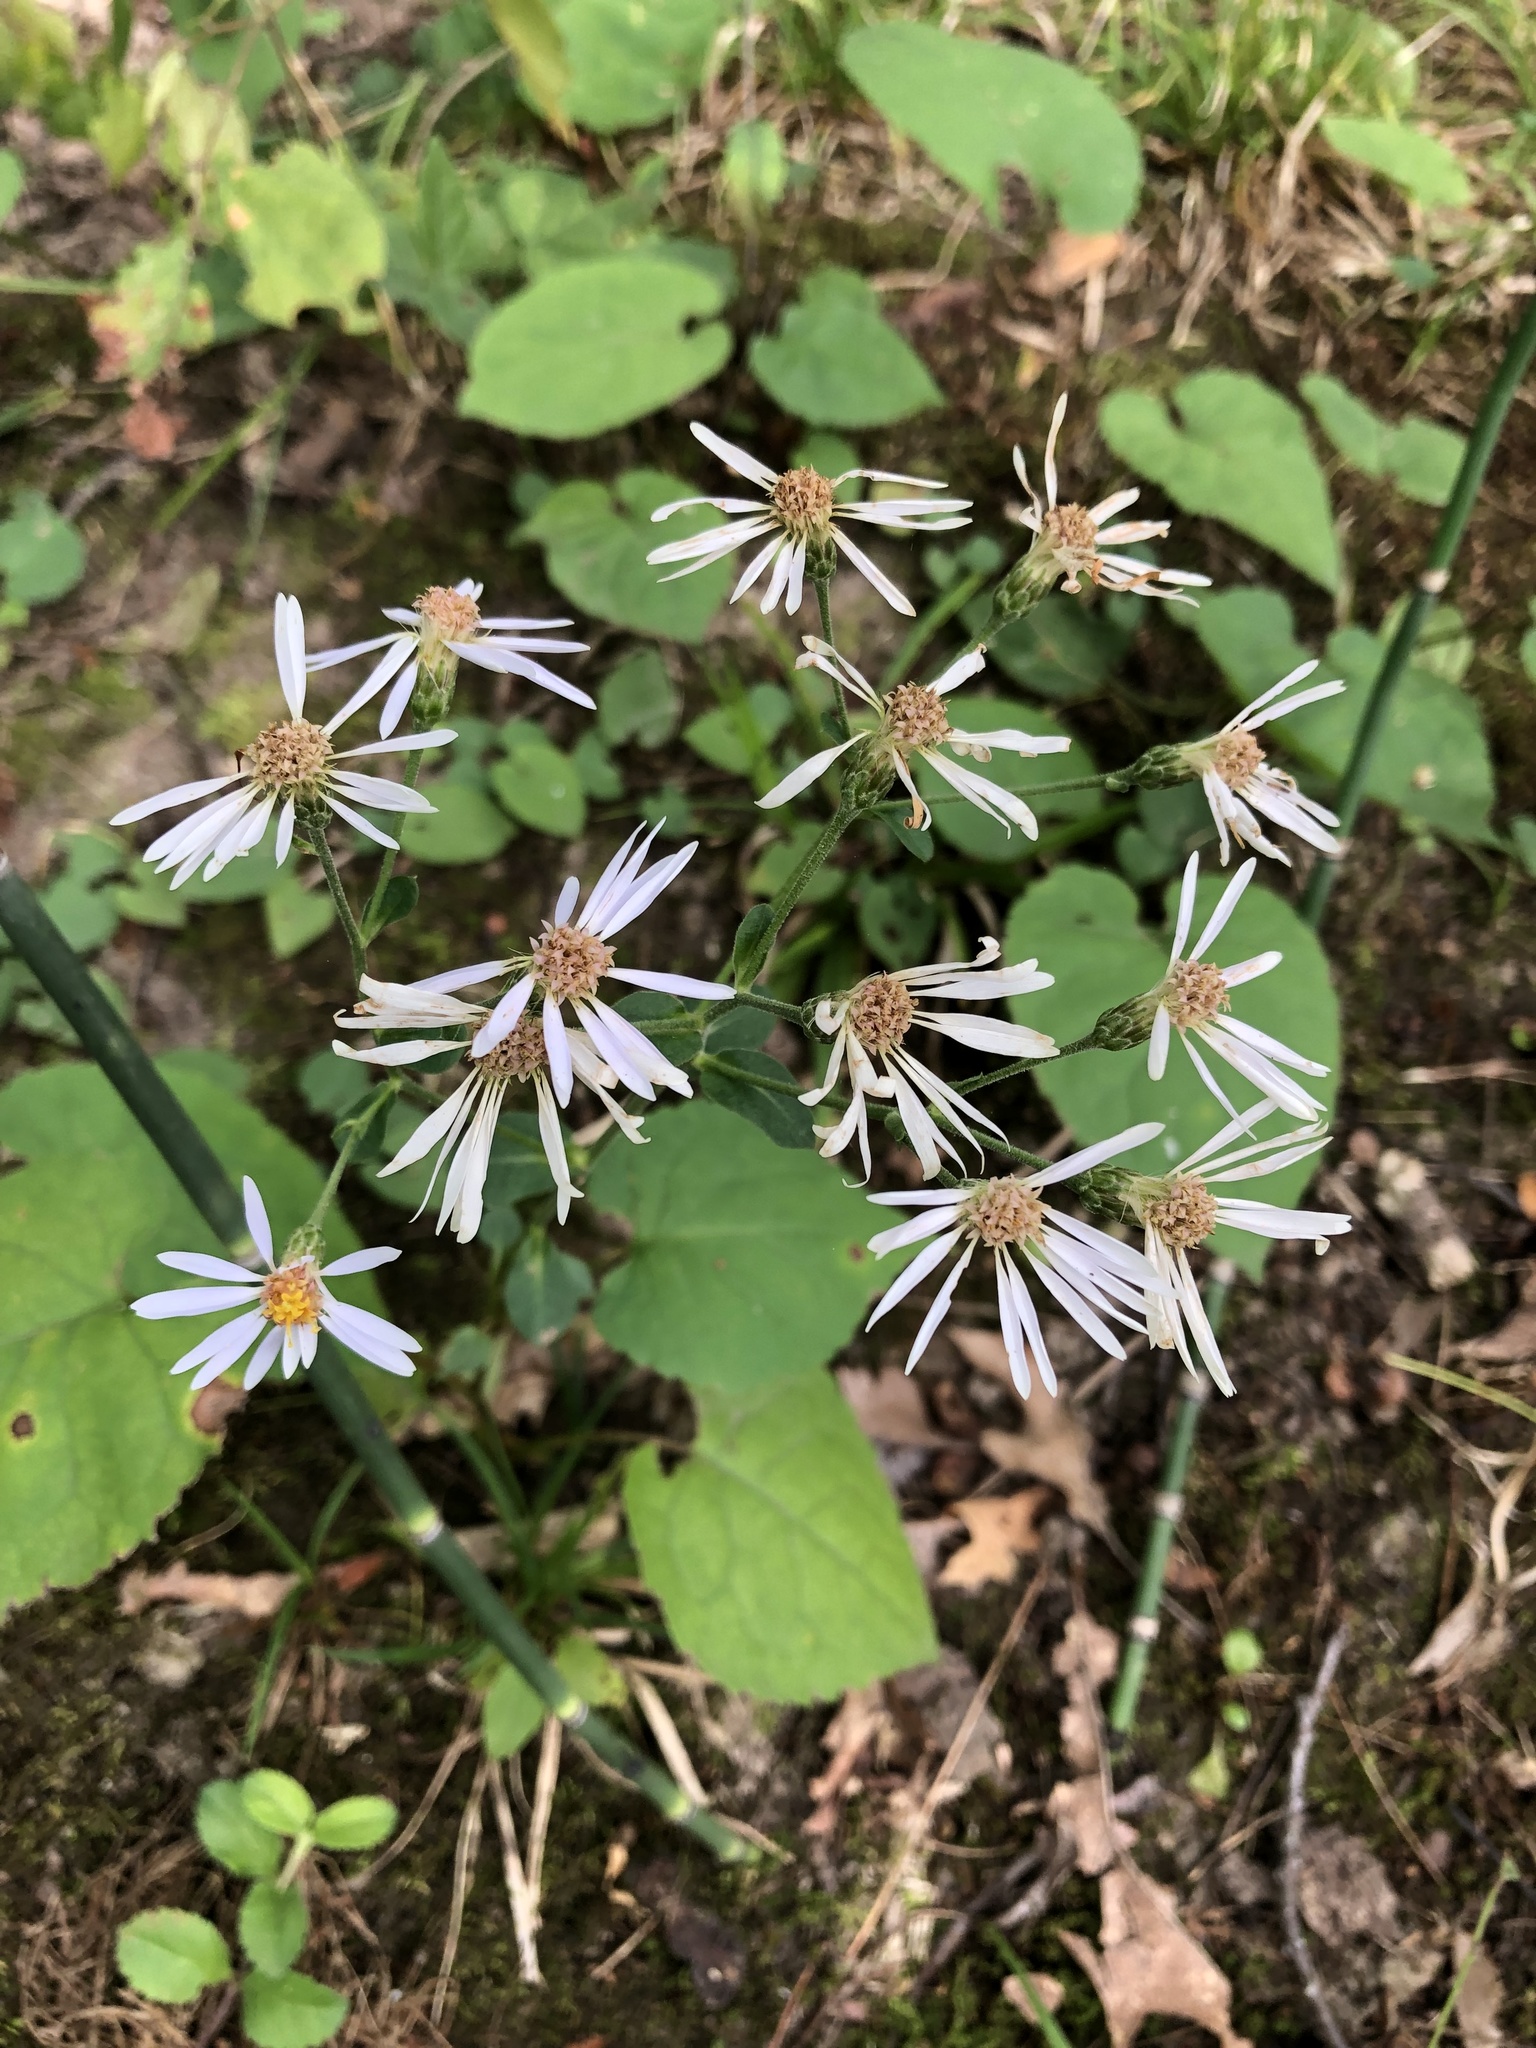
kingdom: Plantae
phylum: Tracheophyta
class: Magnoliopsida
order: Asterales
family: Asteraceae
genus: Eurybia
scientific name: Eurybia macrophylla
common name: Big-leaved aster
